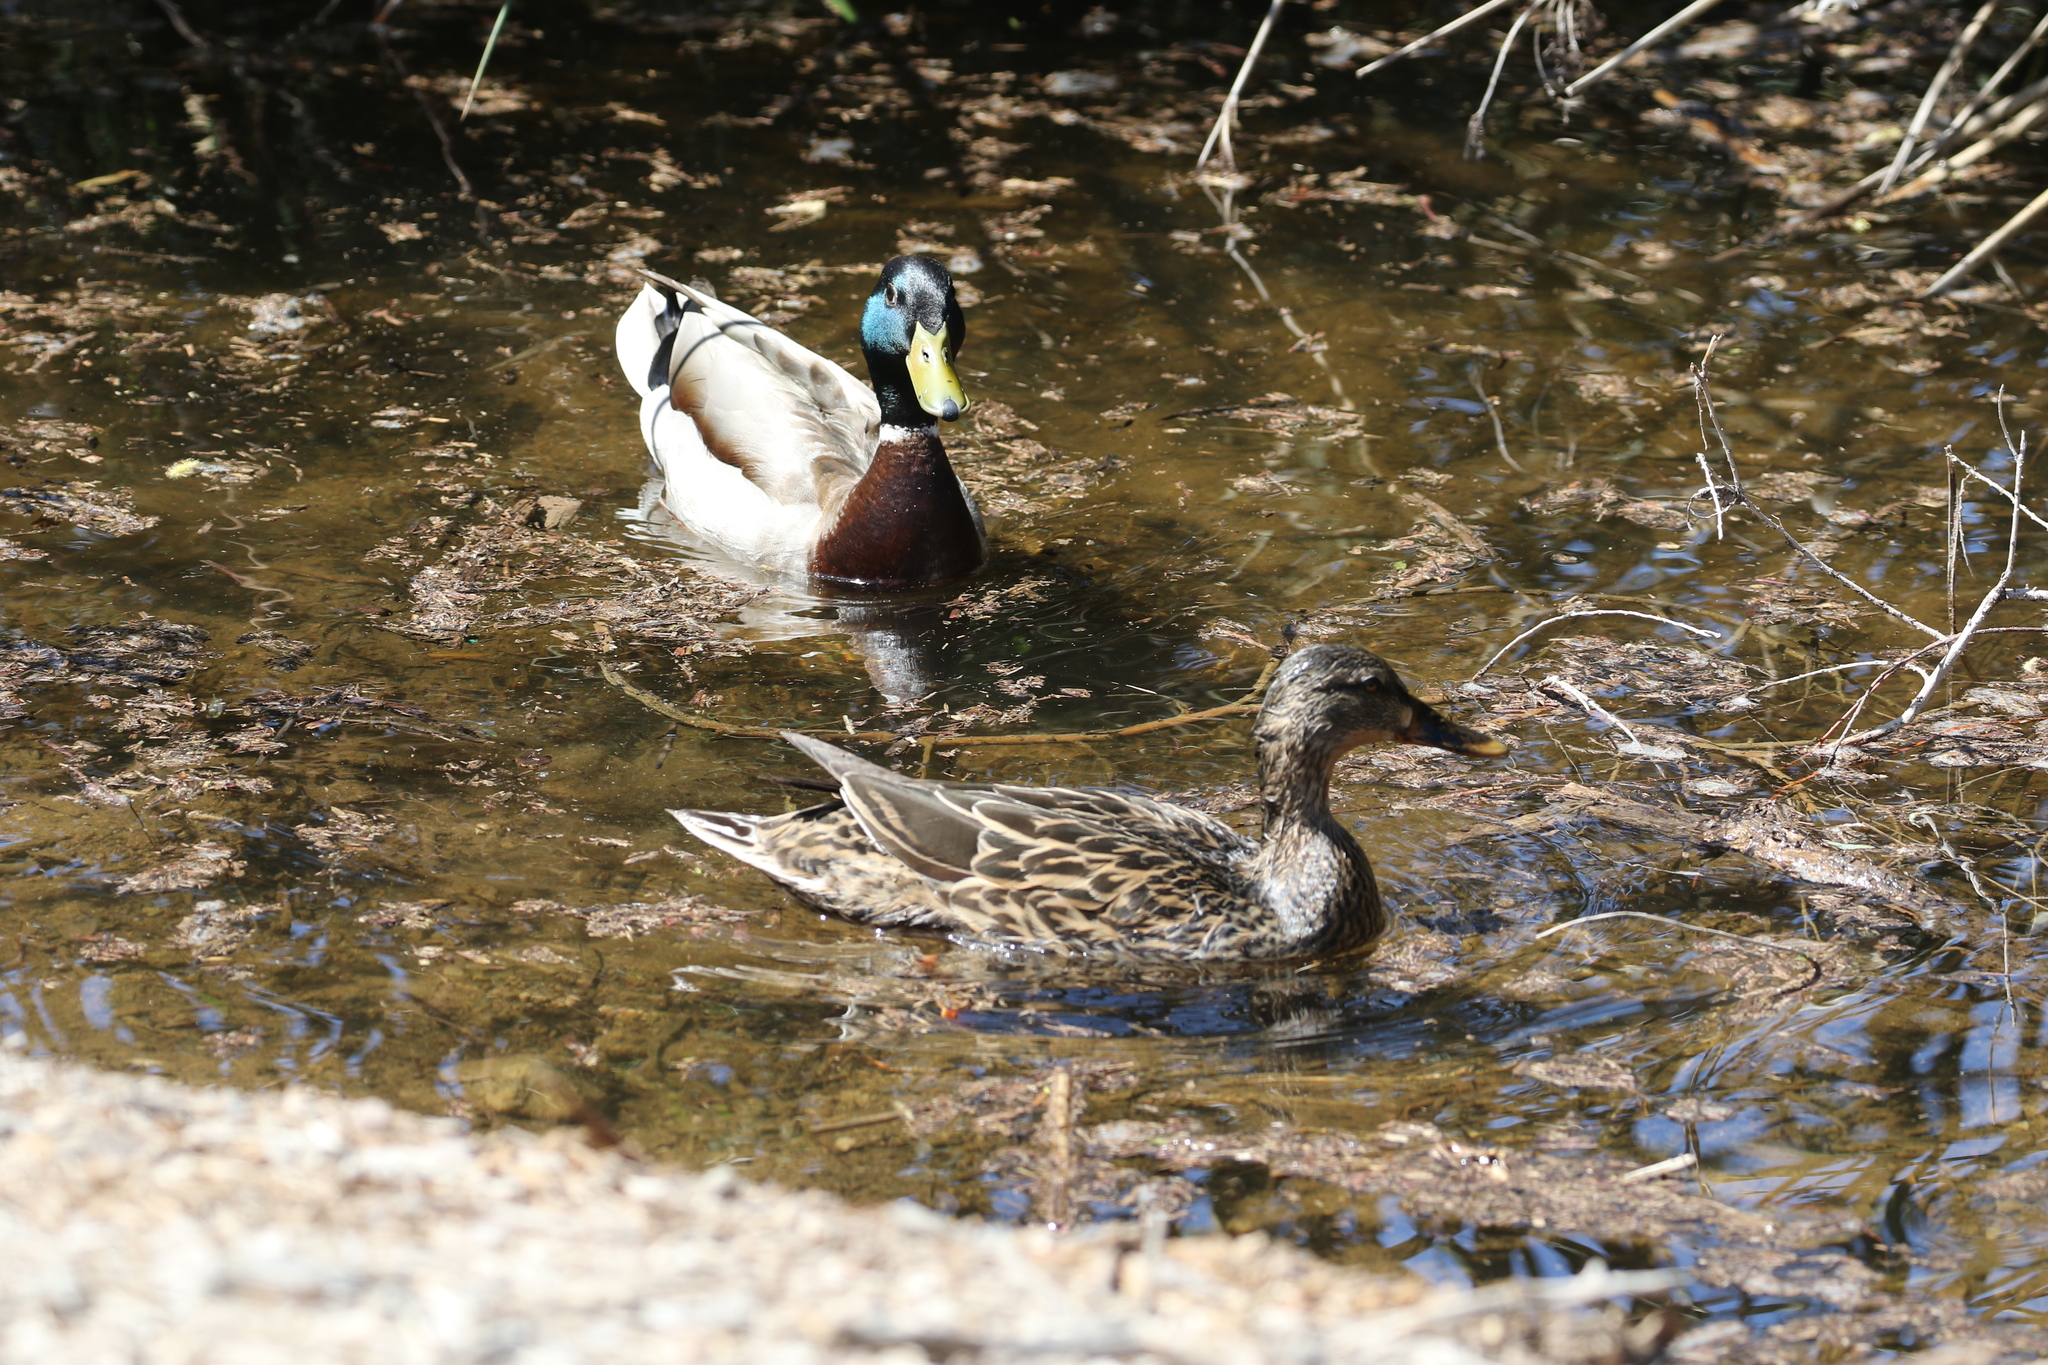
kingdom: Animalia
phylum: Chordata
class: Aves
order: Anseriformes
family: Anatidae
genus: Anas
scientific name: Anas platyrhynchos
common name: Mallard
